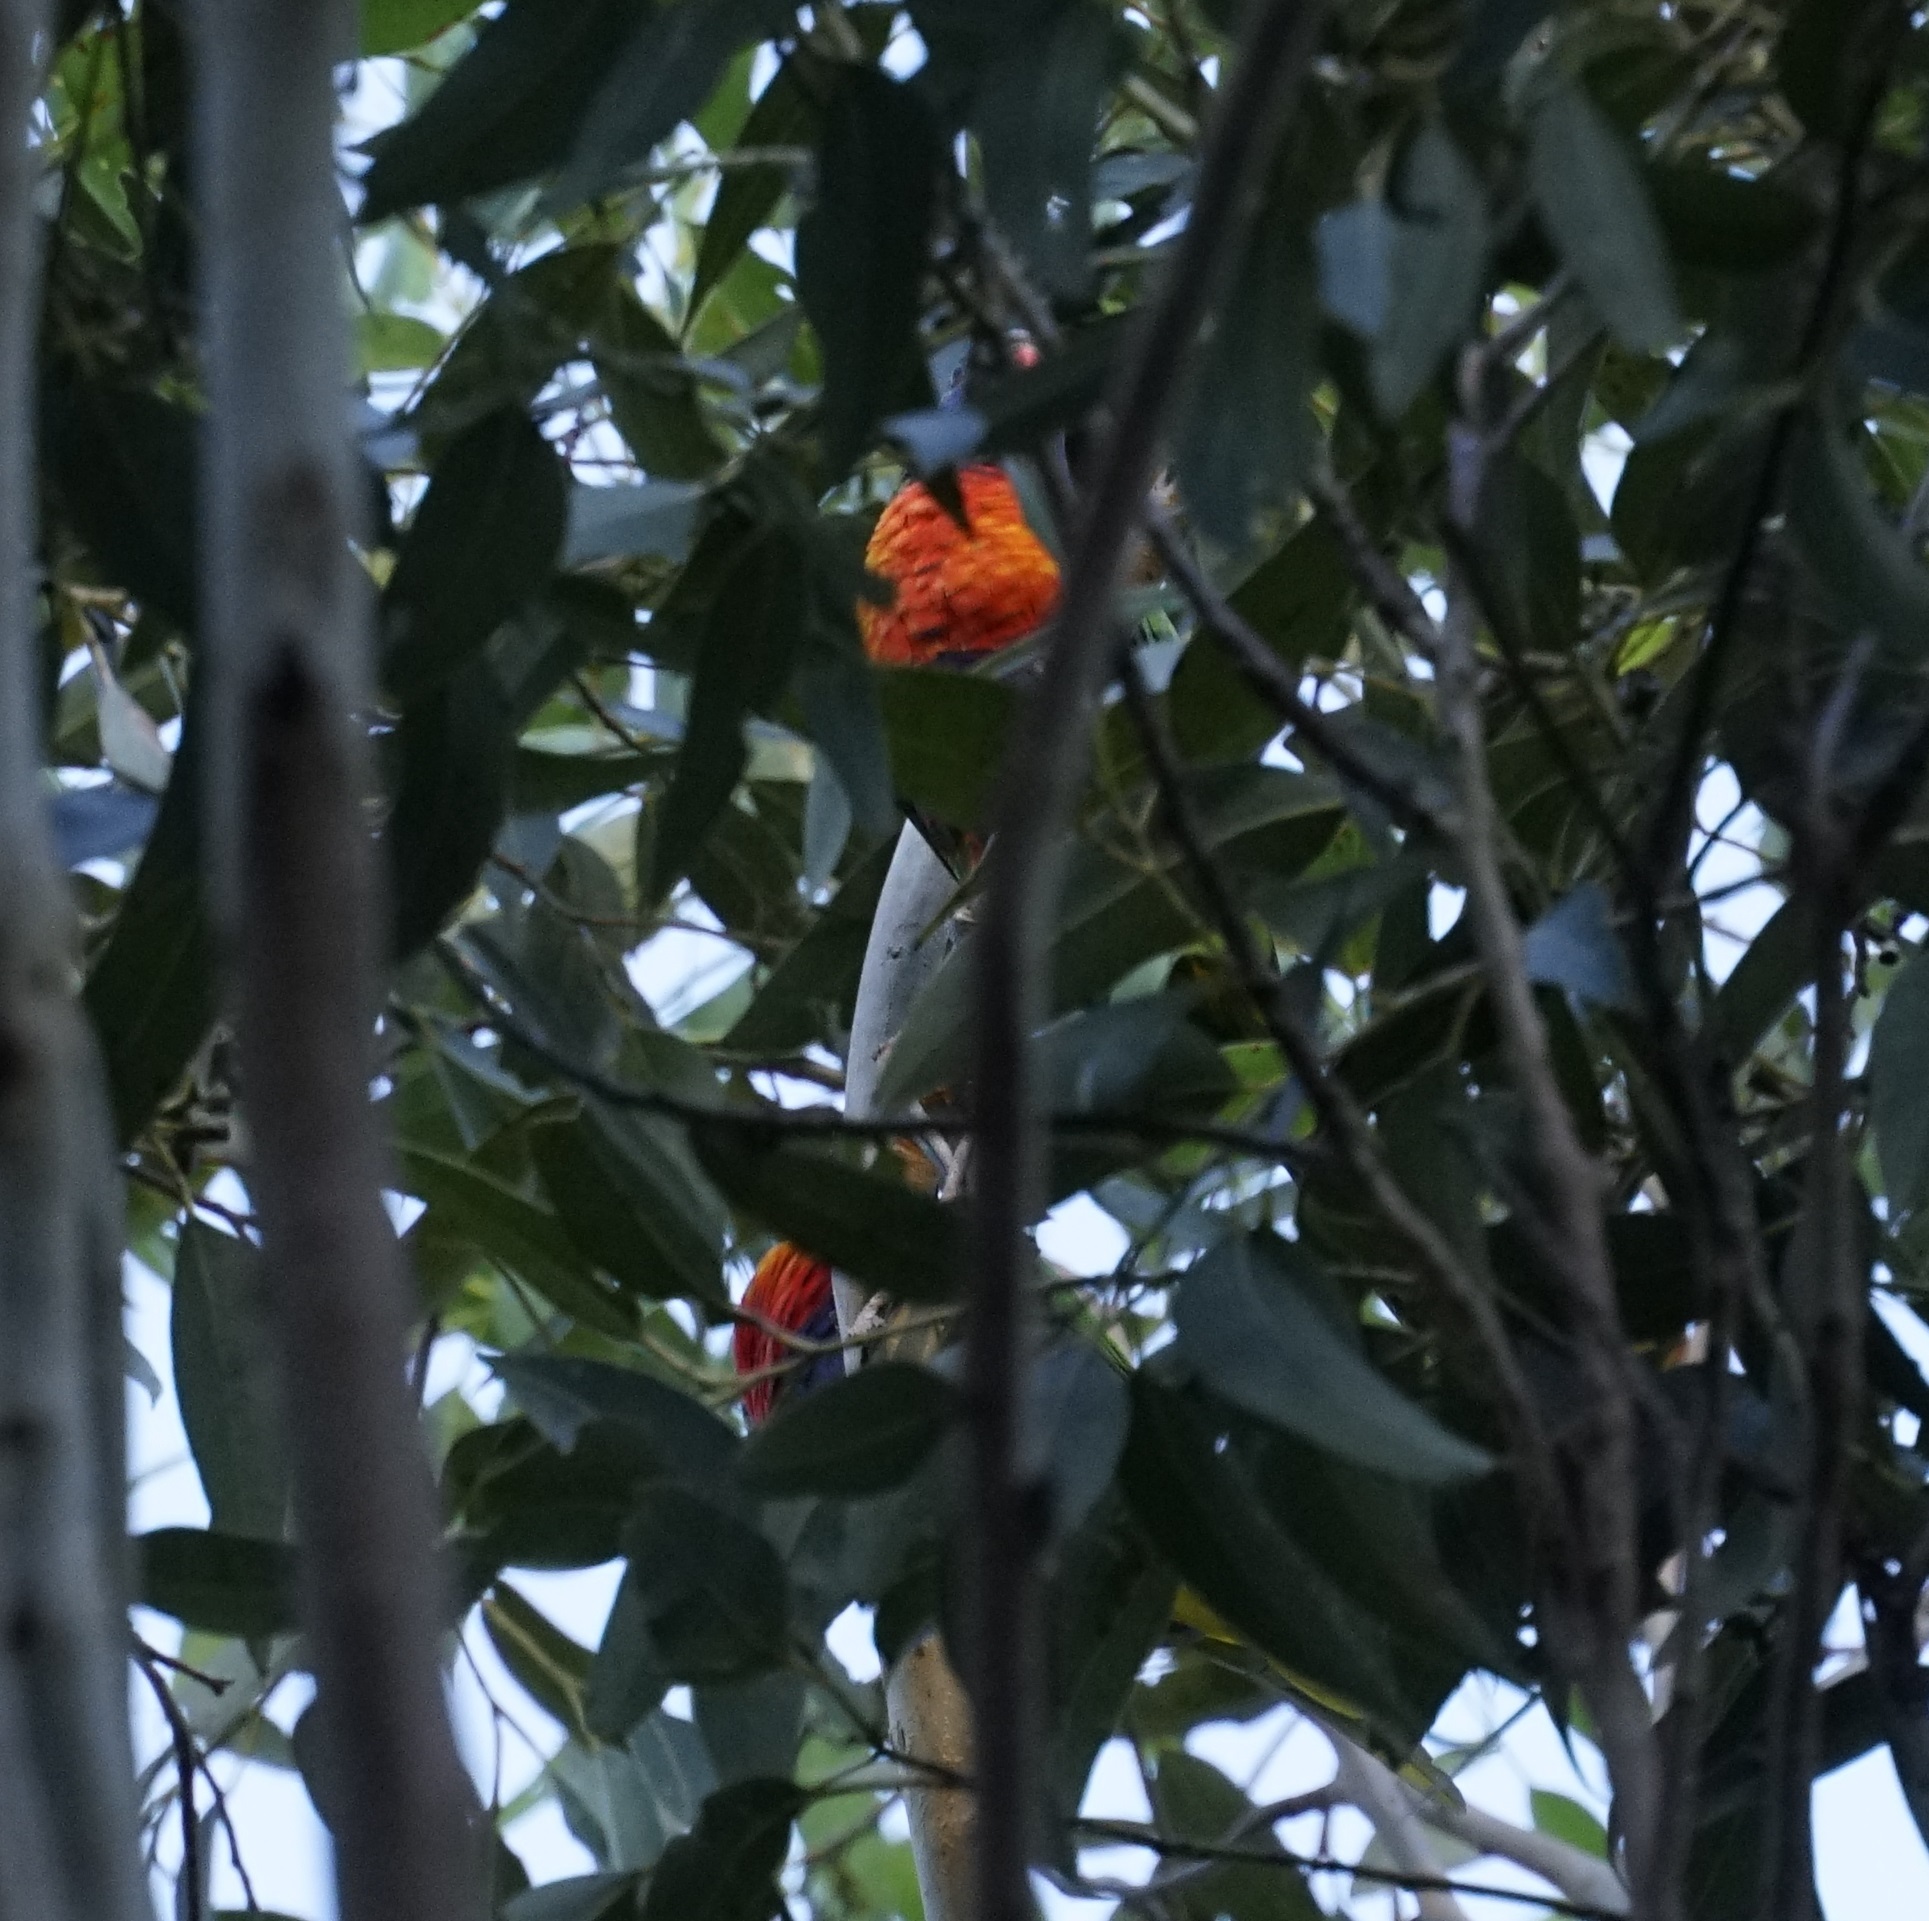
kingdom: Animalia
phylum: Chordata
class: Aves
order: Psittaciformes
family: Psittacidae
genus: Trichoglossus
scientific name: Trichoglossus haematodus
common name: Coconut lorikeet
